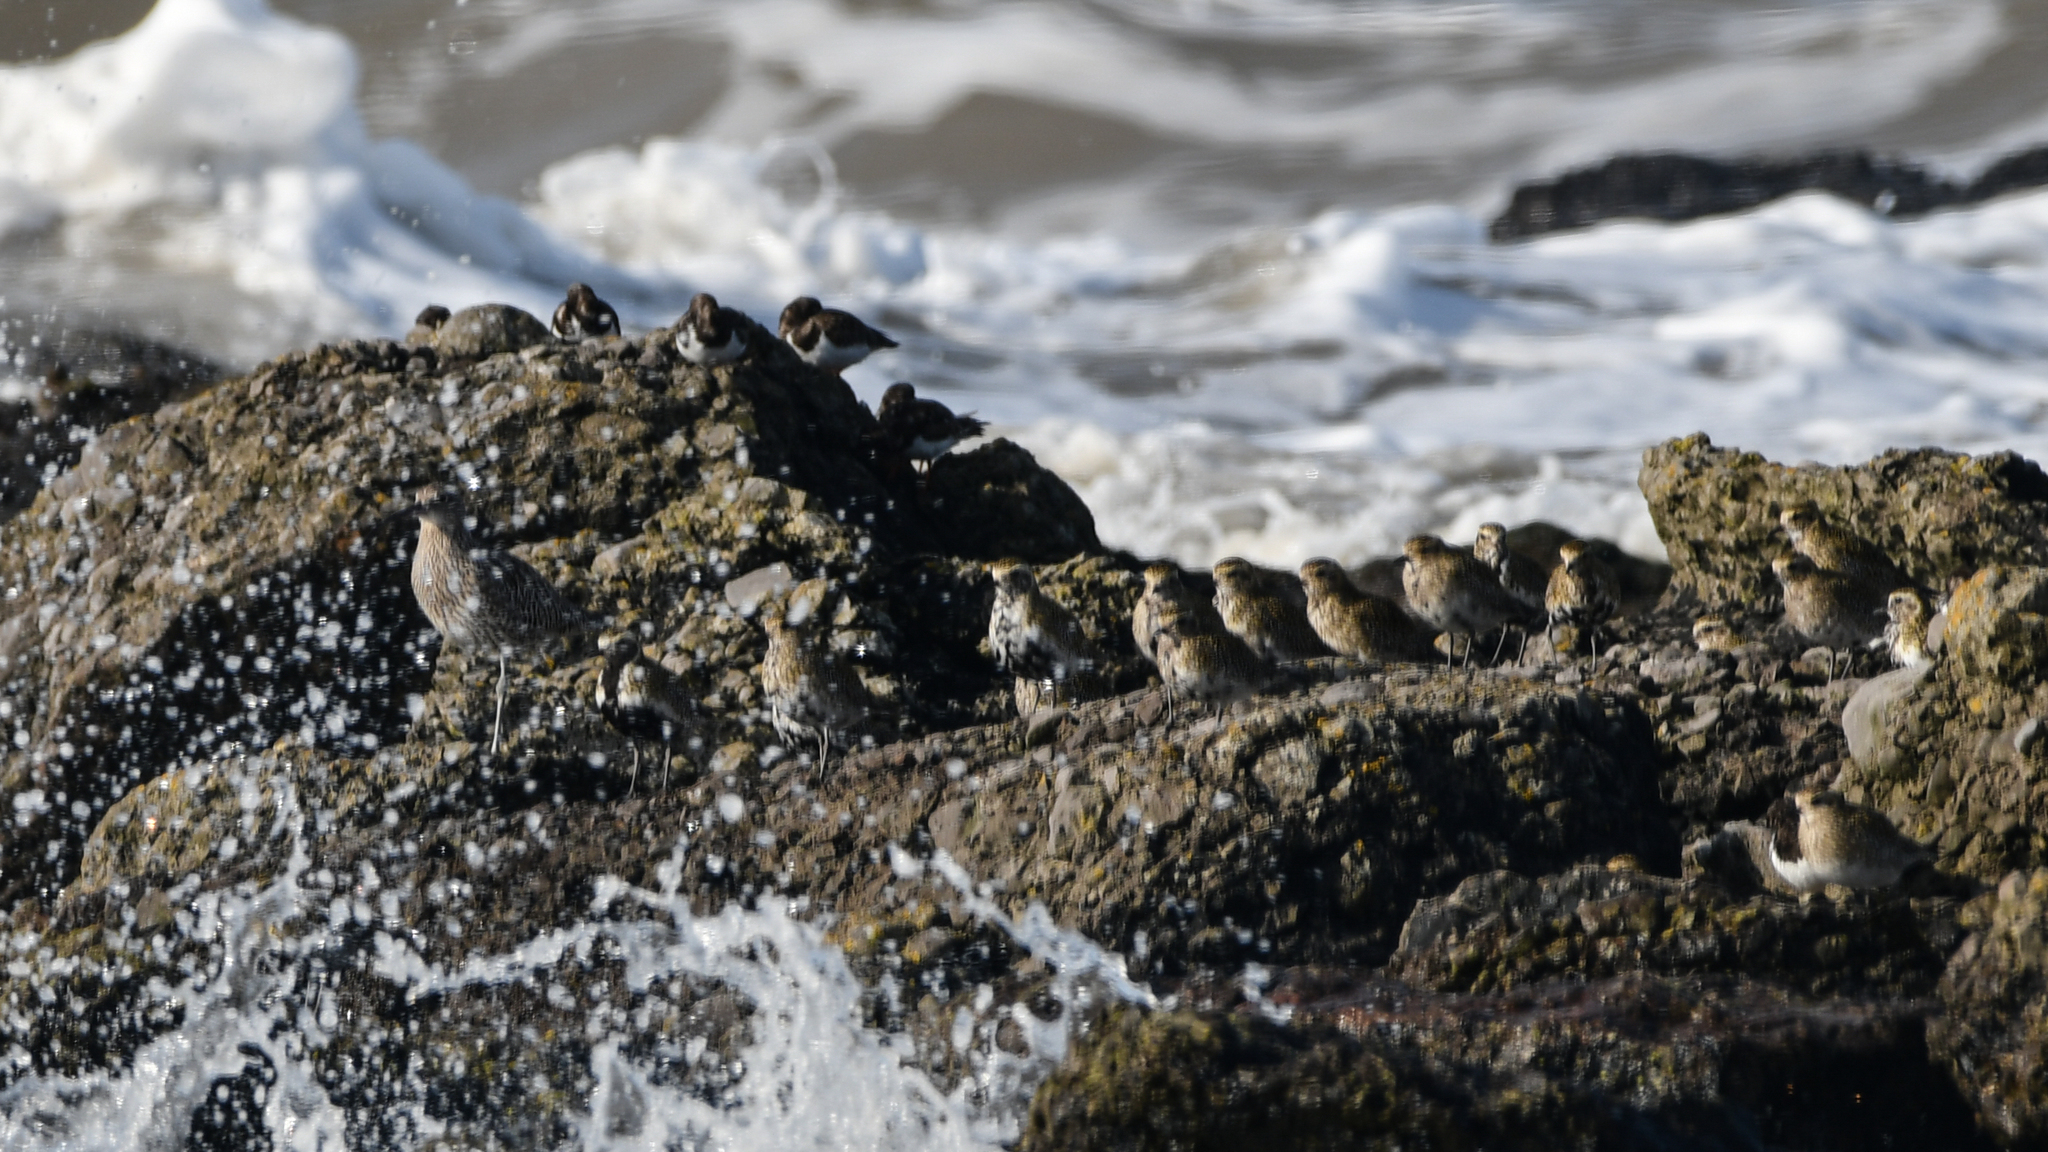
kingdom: Animalia
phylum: Chordata
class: Aves
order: Charadriiformes
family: Charadriidae
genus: Pluvialis
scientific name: Pluvialis apricaria
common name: European golden plover
